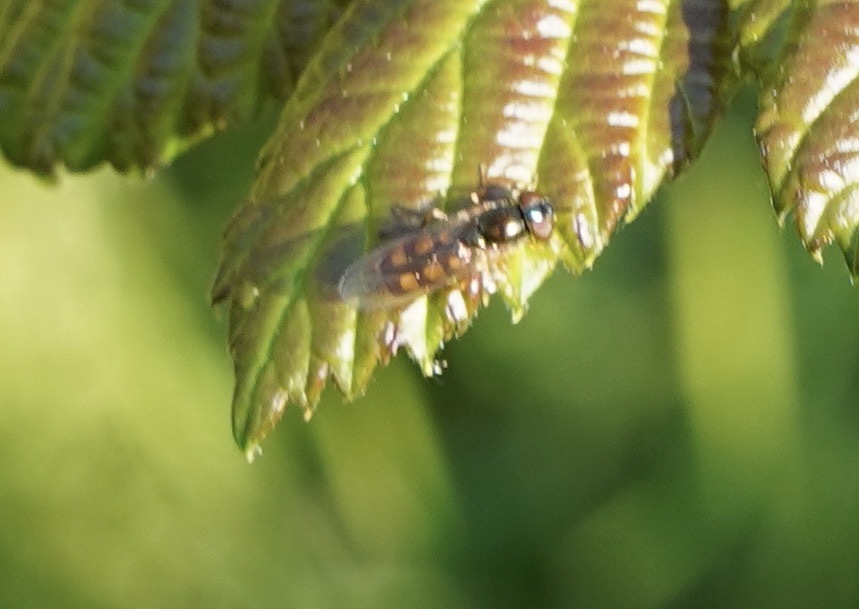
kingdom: Animalia
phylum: Arthropoda
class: Insecta
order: Diptera
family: Syrphidae
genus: Melanostoma
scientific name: Melanostoma mellina
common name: Hover fly
